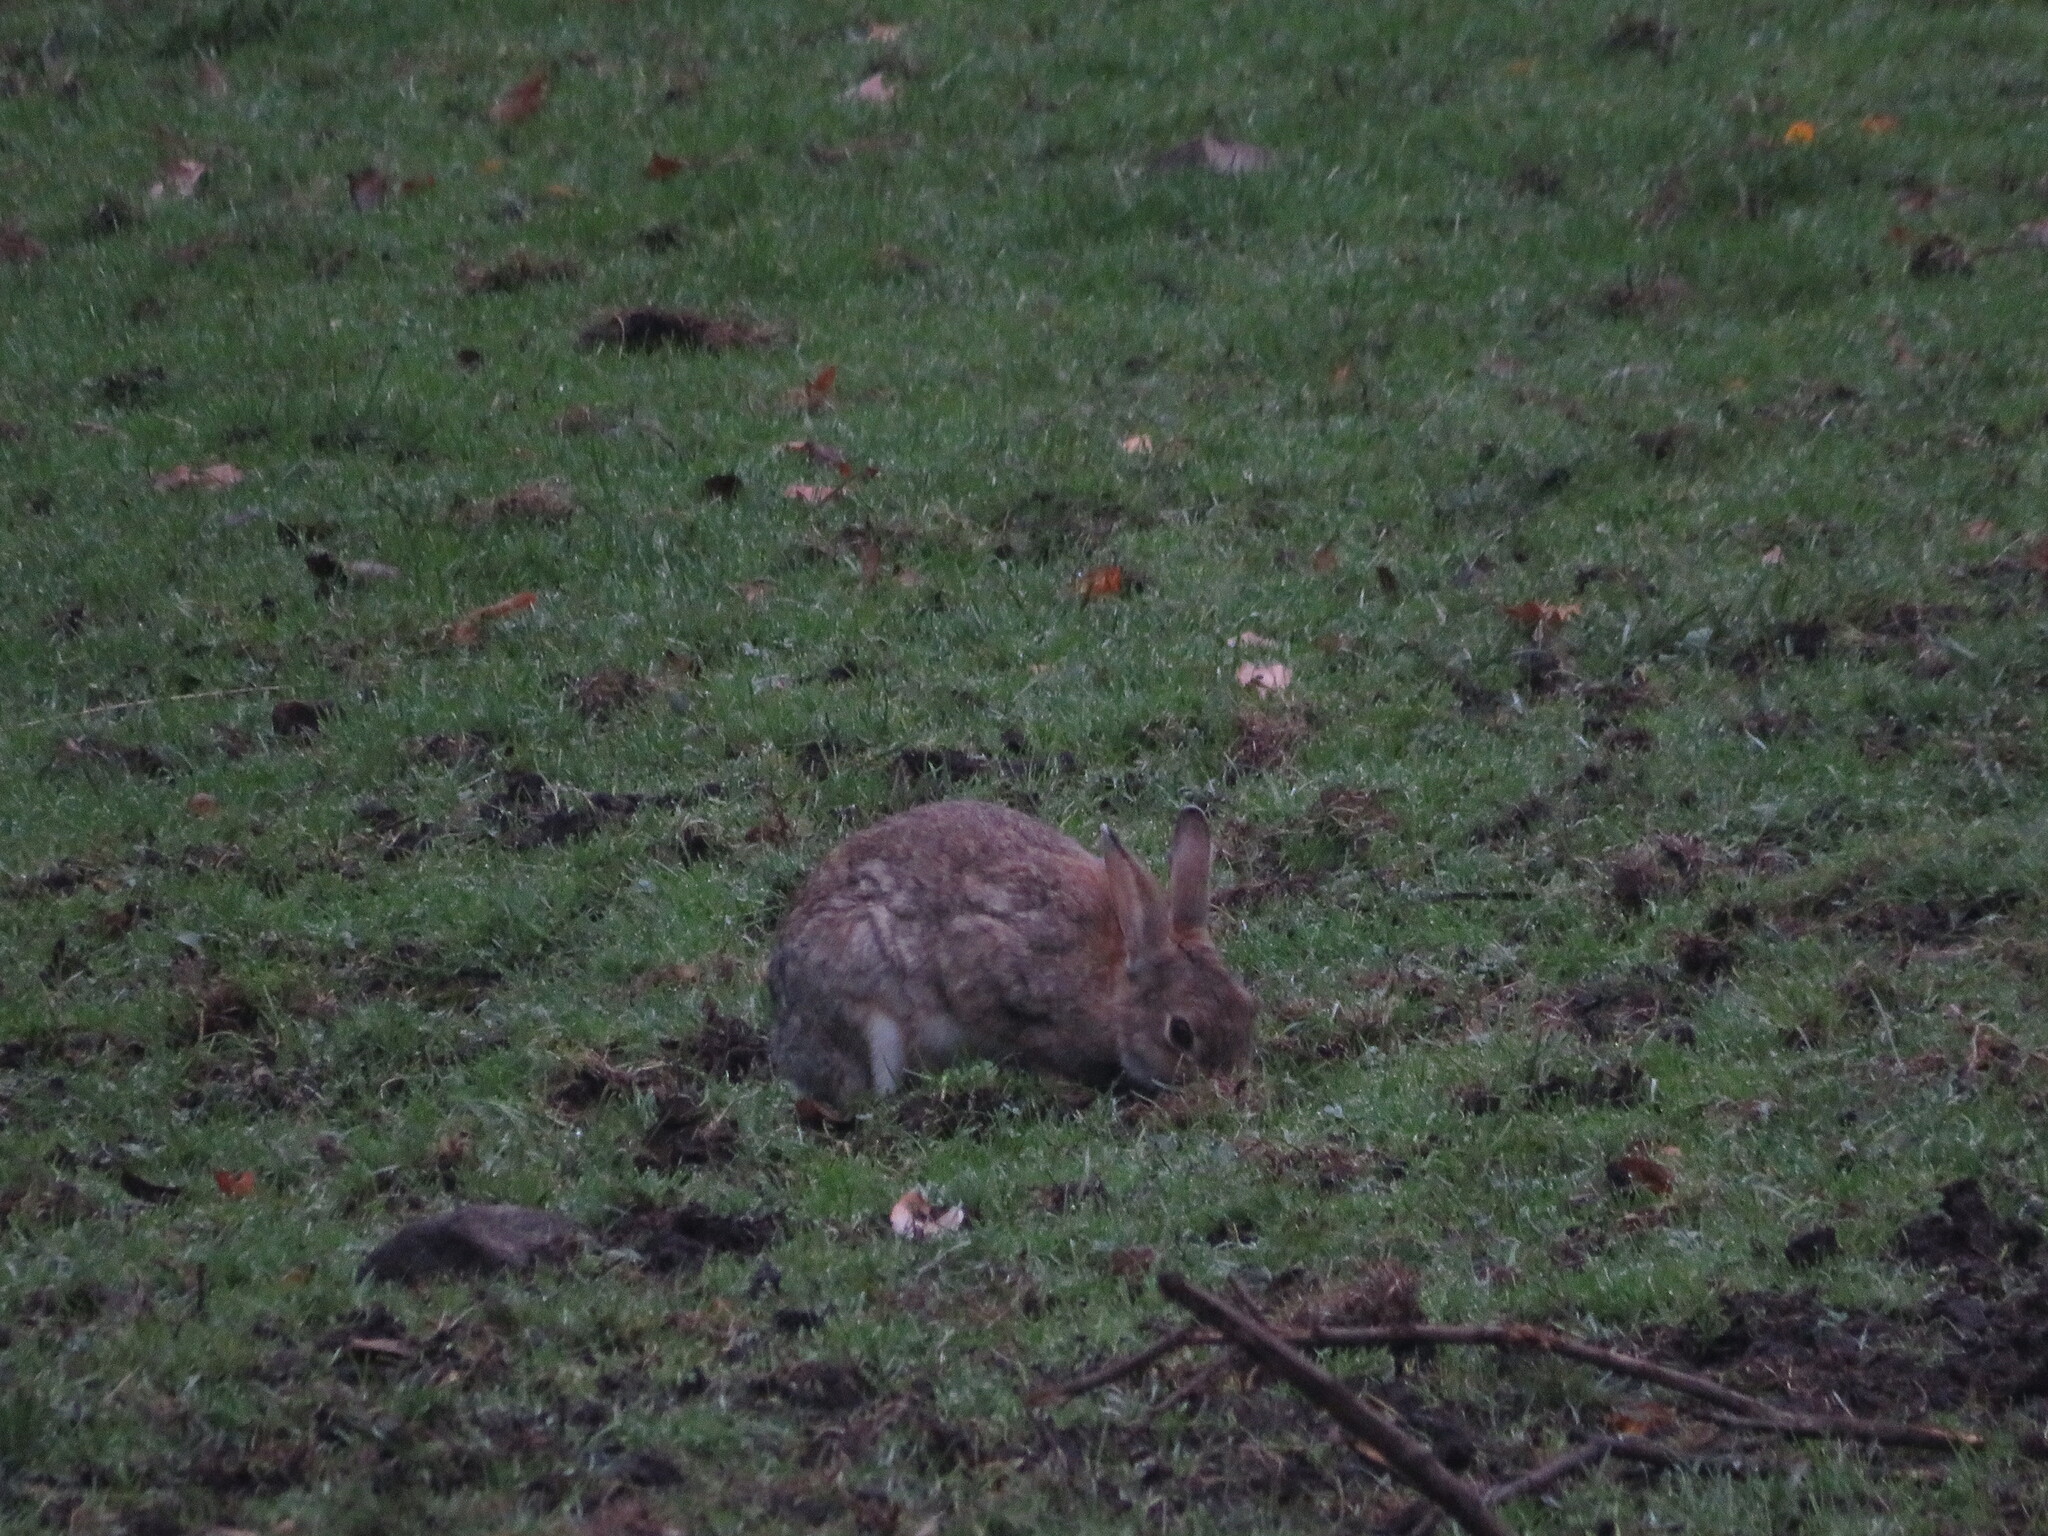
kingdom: Animalia
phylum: Chordata
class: Mammalia
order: Lagomorpha
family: Leporidae
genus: Oryctolagus
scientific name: Oryctolagus cuniculus
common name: European rabbit
